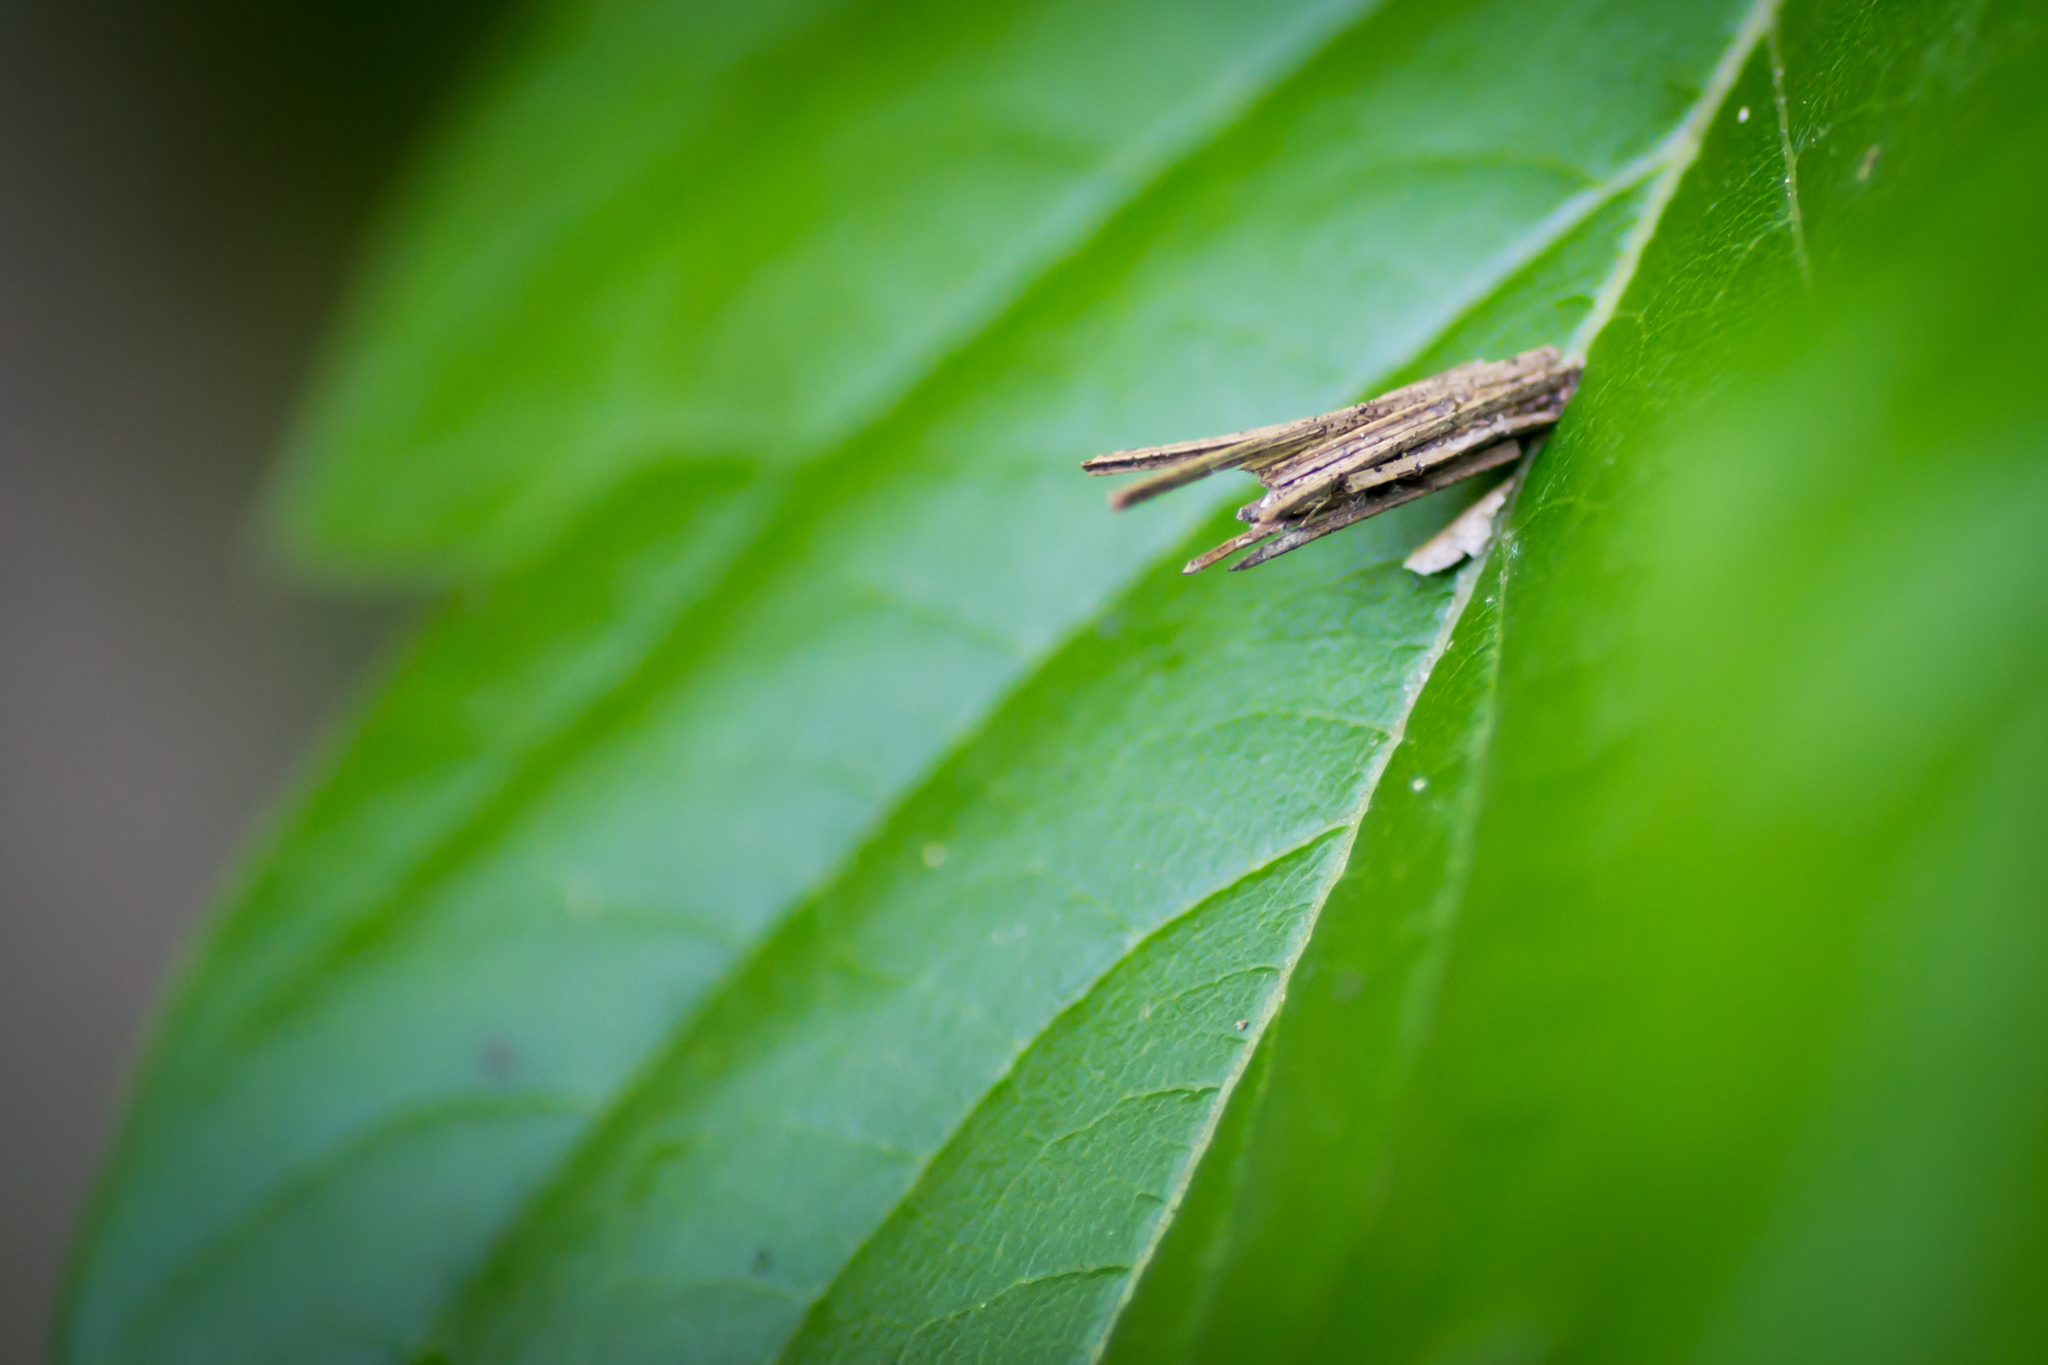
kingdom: Animalia
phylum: Arthropoda
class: Insecta
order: Lepidoptera
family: Psychidae
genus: Psyche
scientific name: Psyche casta
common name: Common sweep
